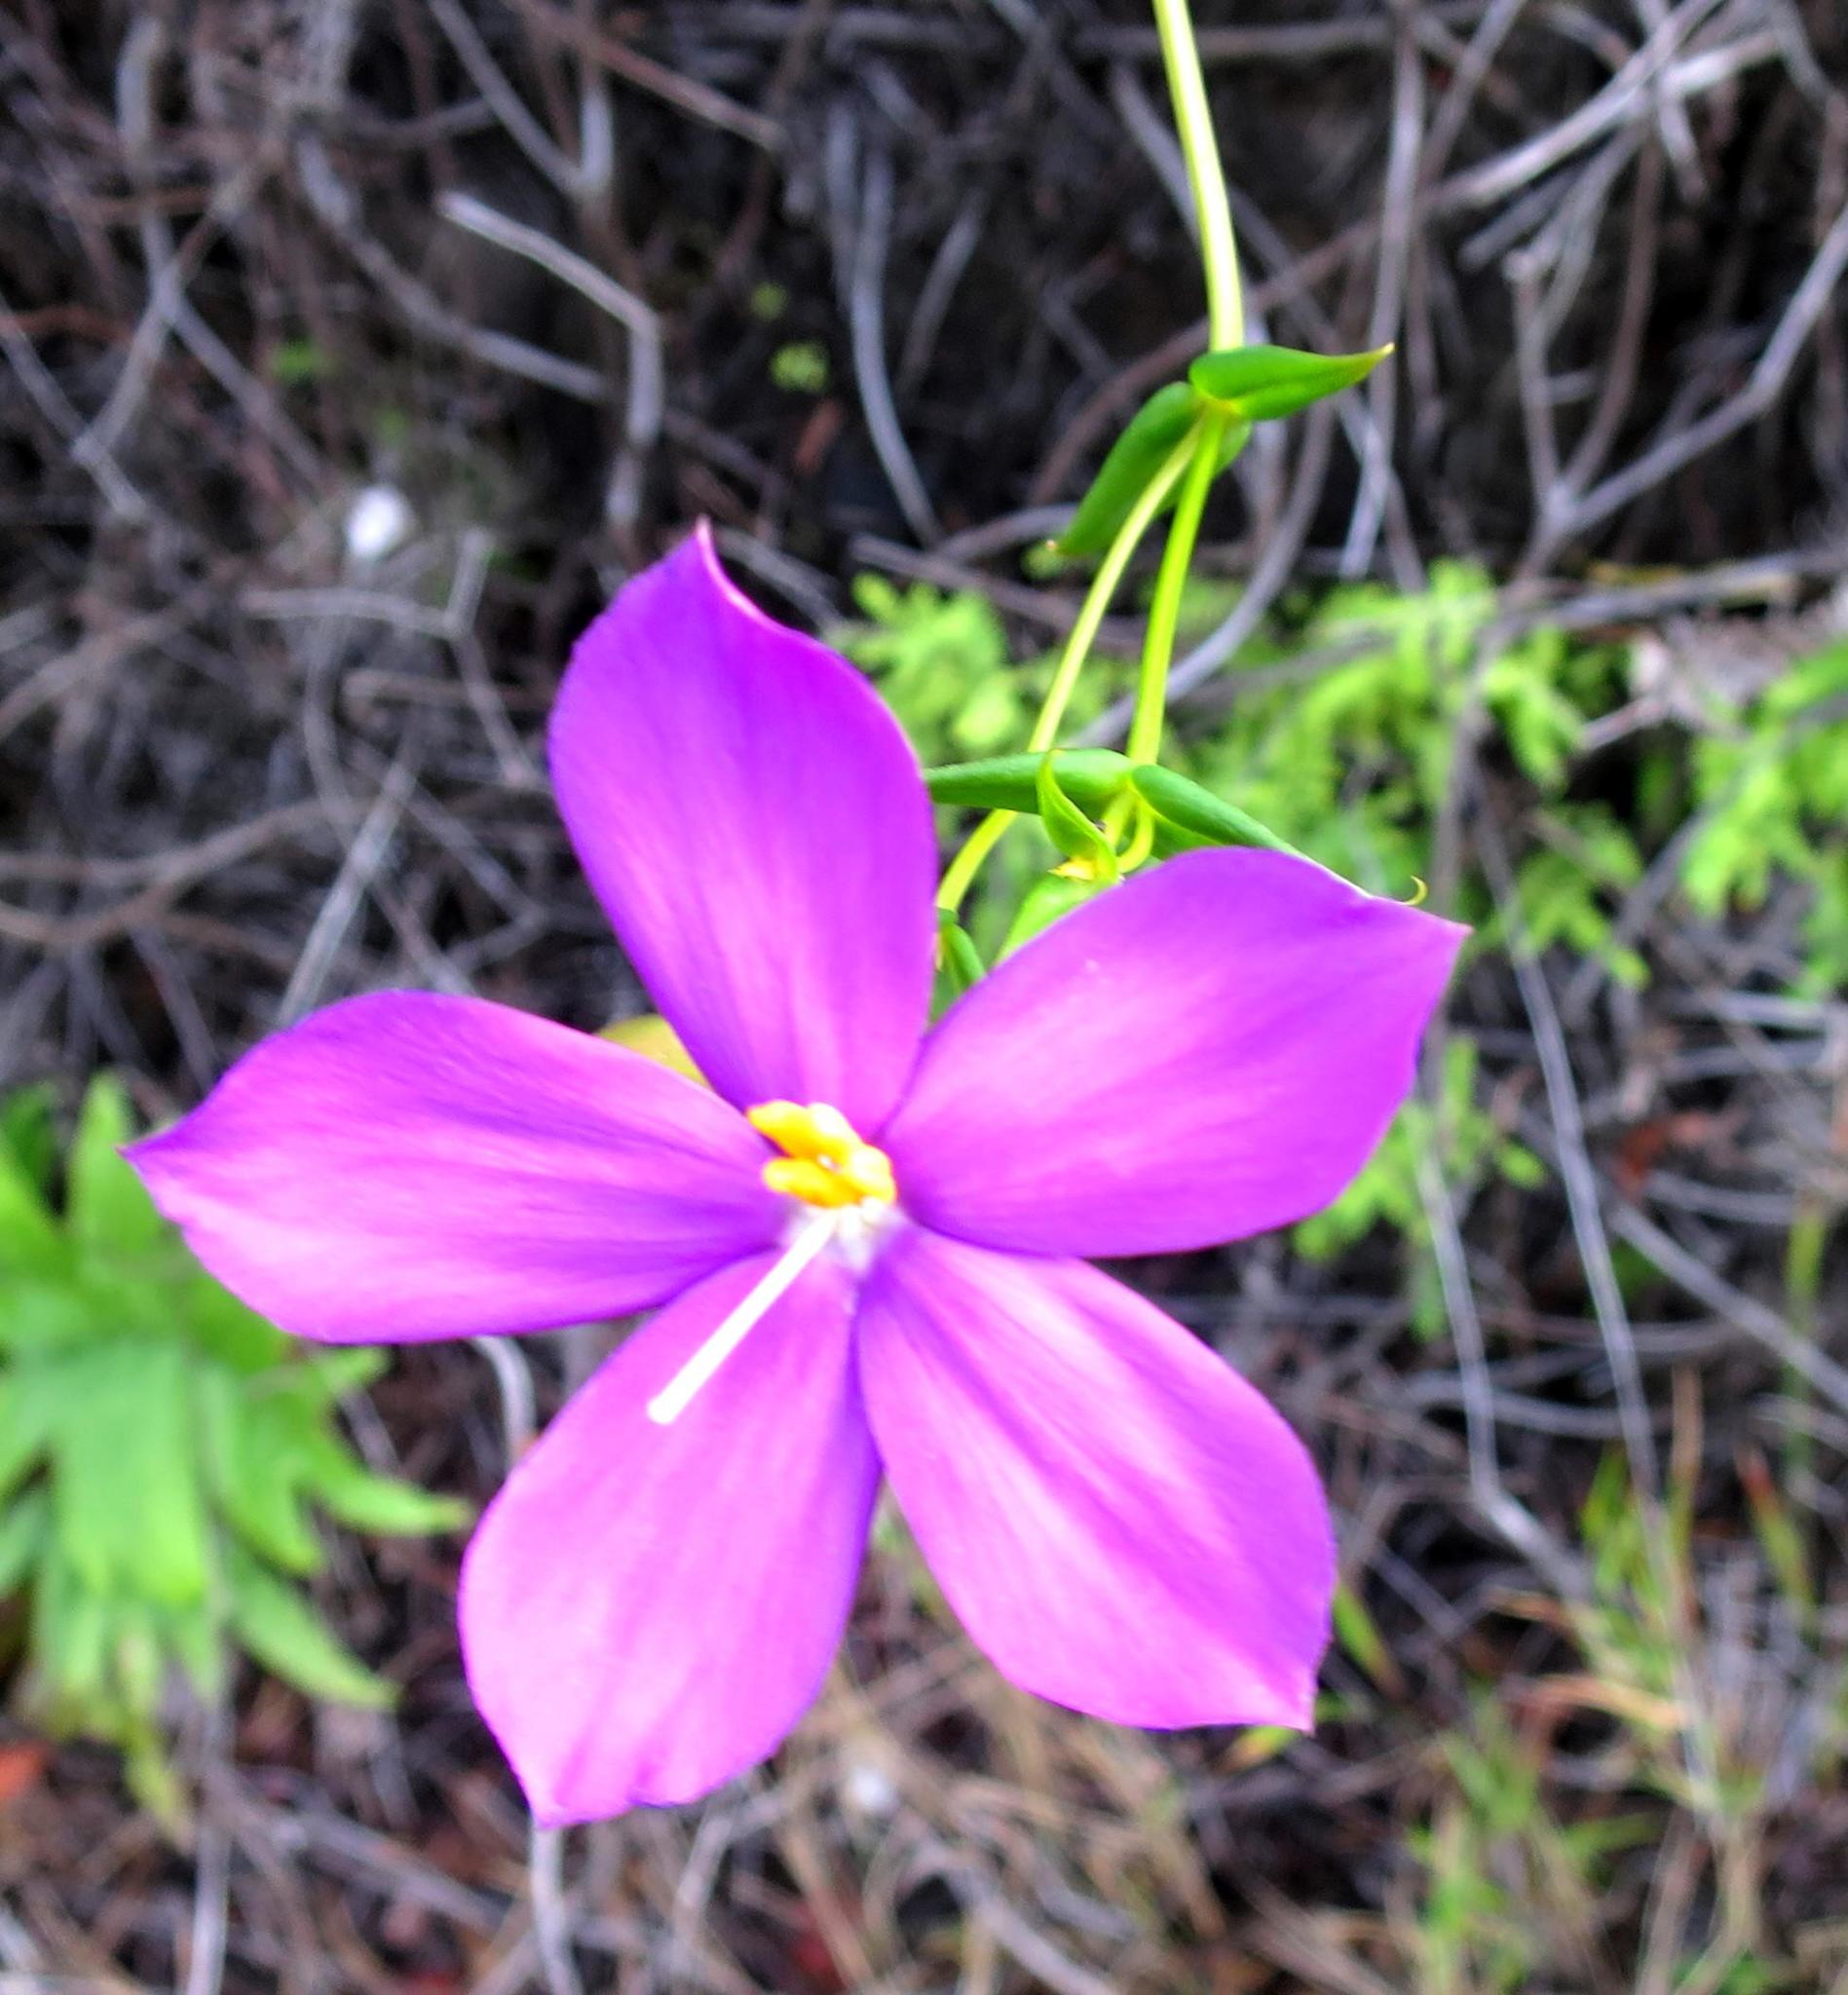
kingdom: Plantae
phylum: Tracheophyta
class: Magnoliopsida
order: Gentianales
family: Gentianaceae
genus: Chironia
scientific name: Chironia melampyrifolia
